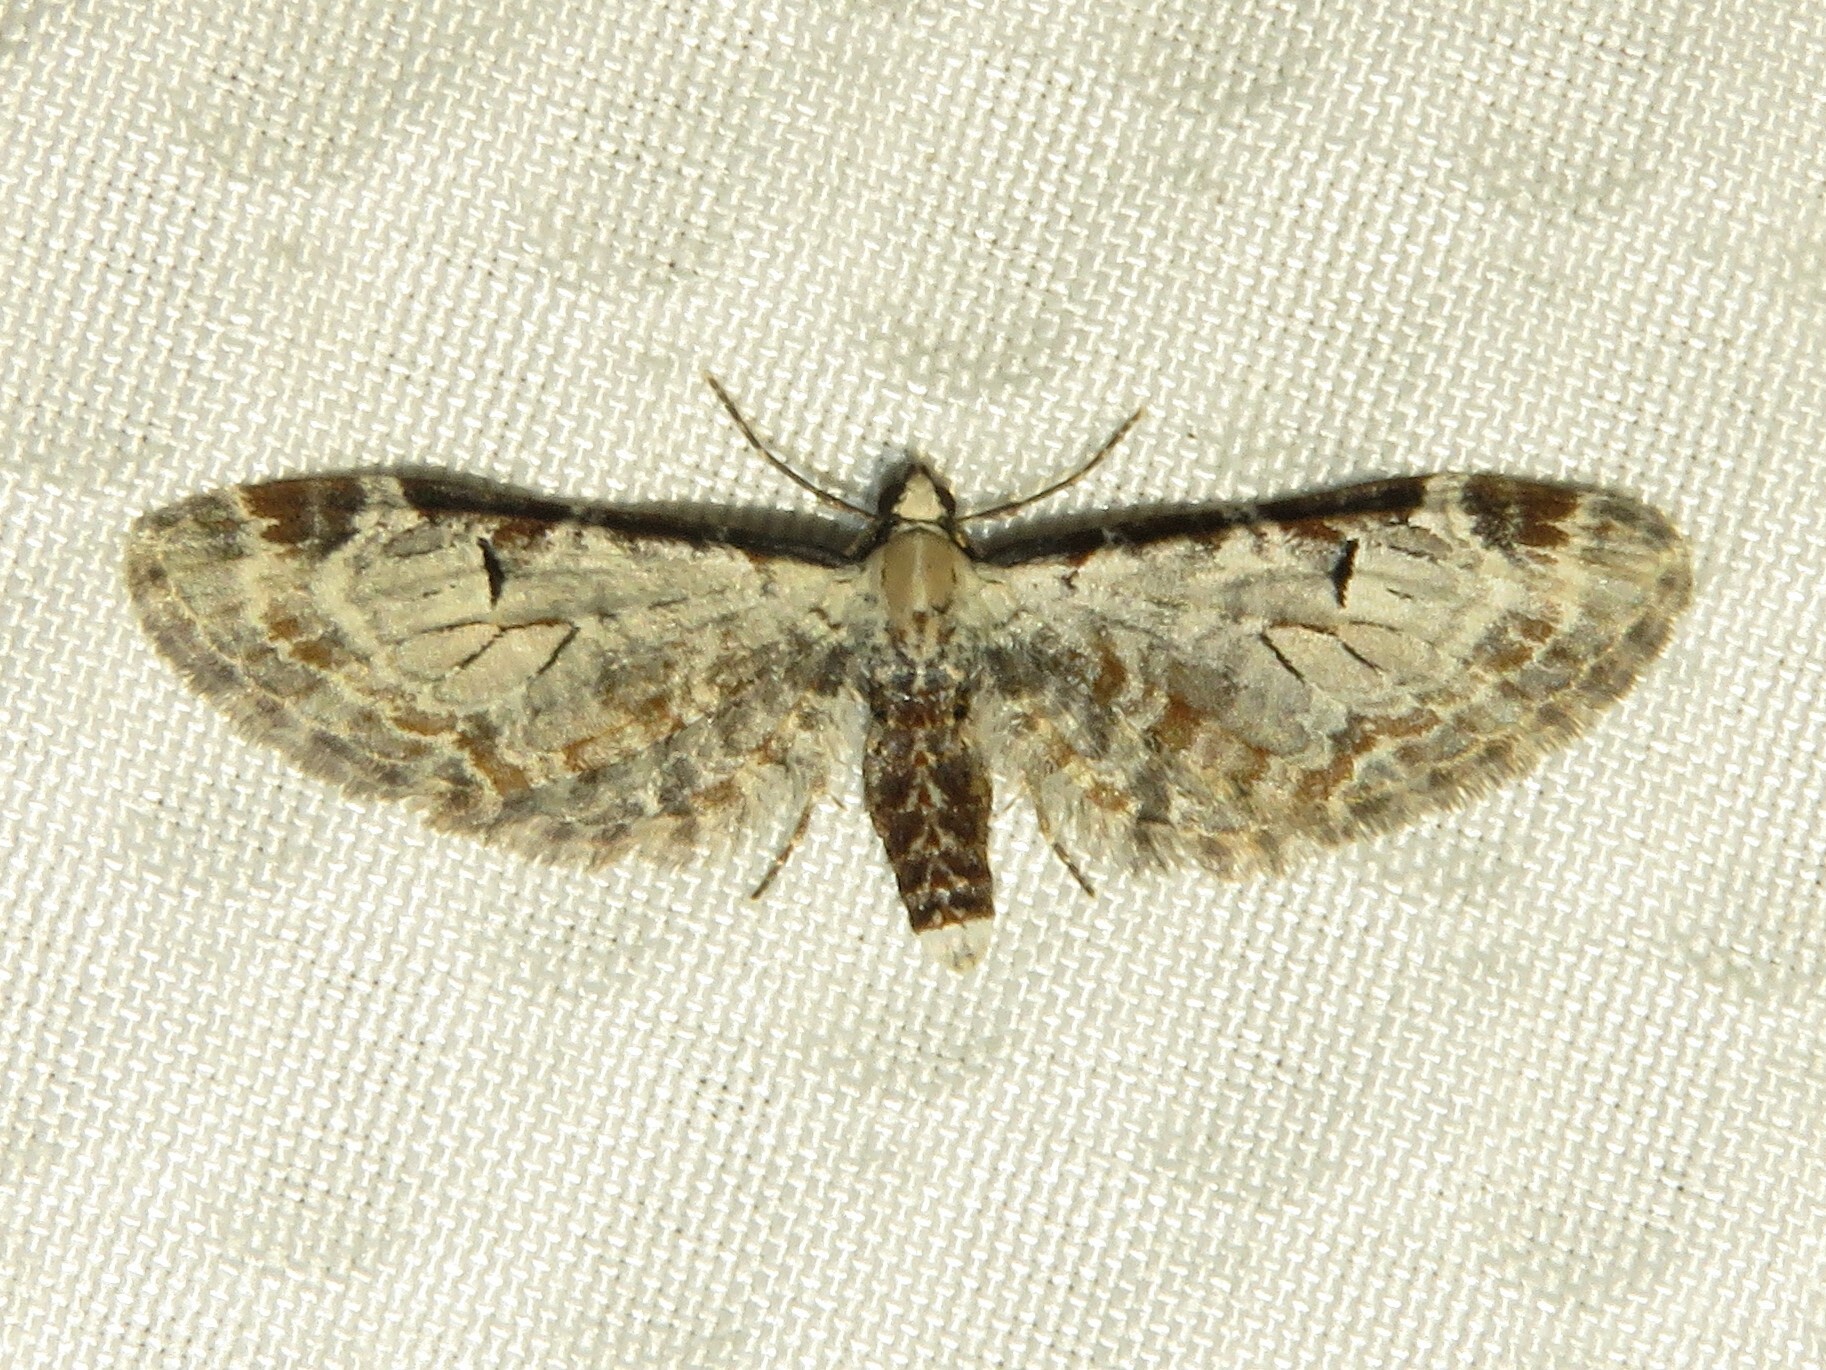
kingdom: Animalia
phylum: Arthropoda
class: Insecta
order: Lepidoptera
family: Geometridae
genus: Eupithecia
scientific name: Eupithecia ravocostaliata
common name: Great varigated pug
